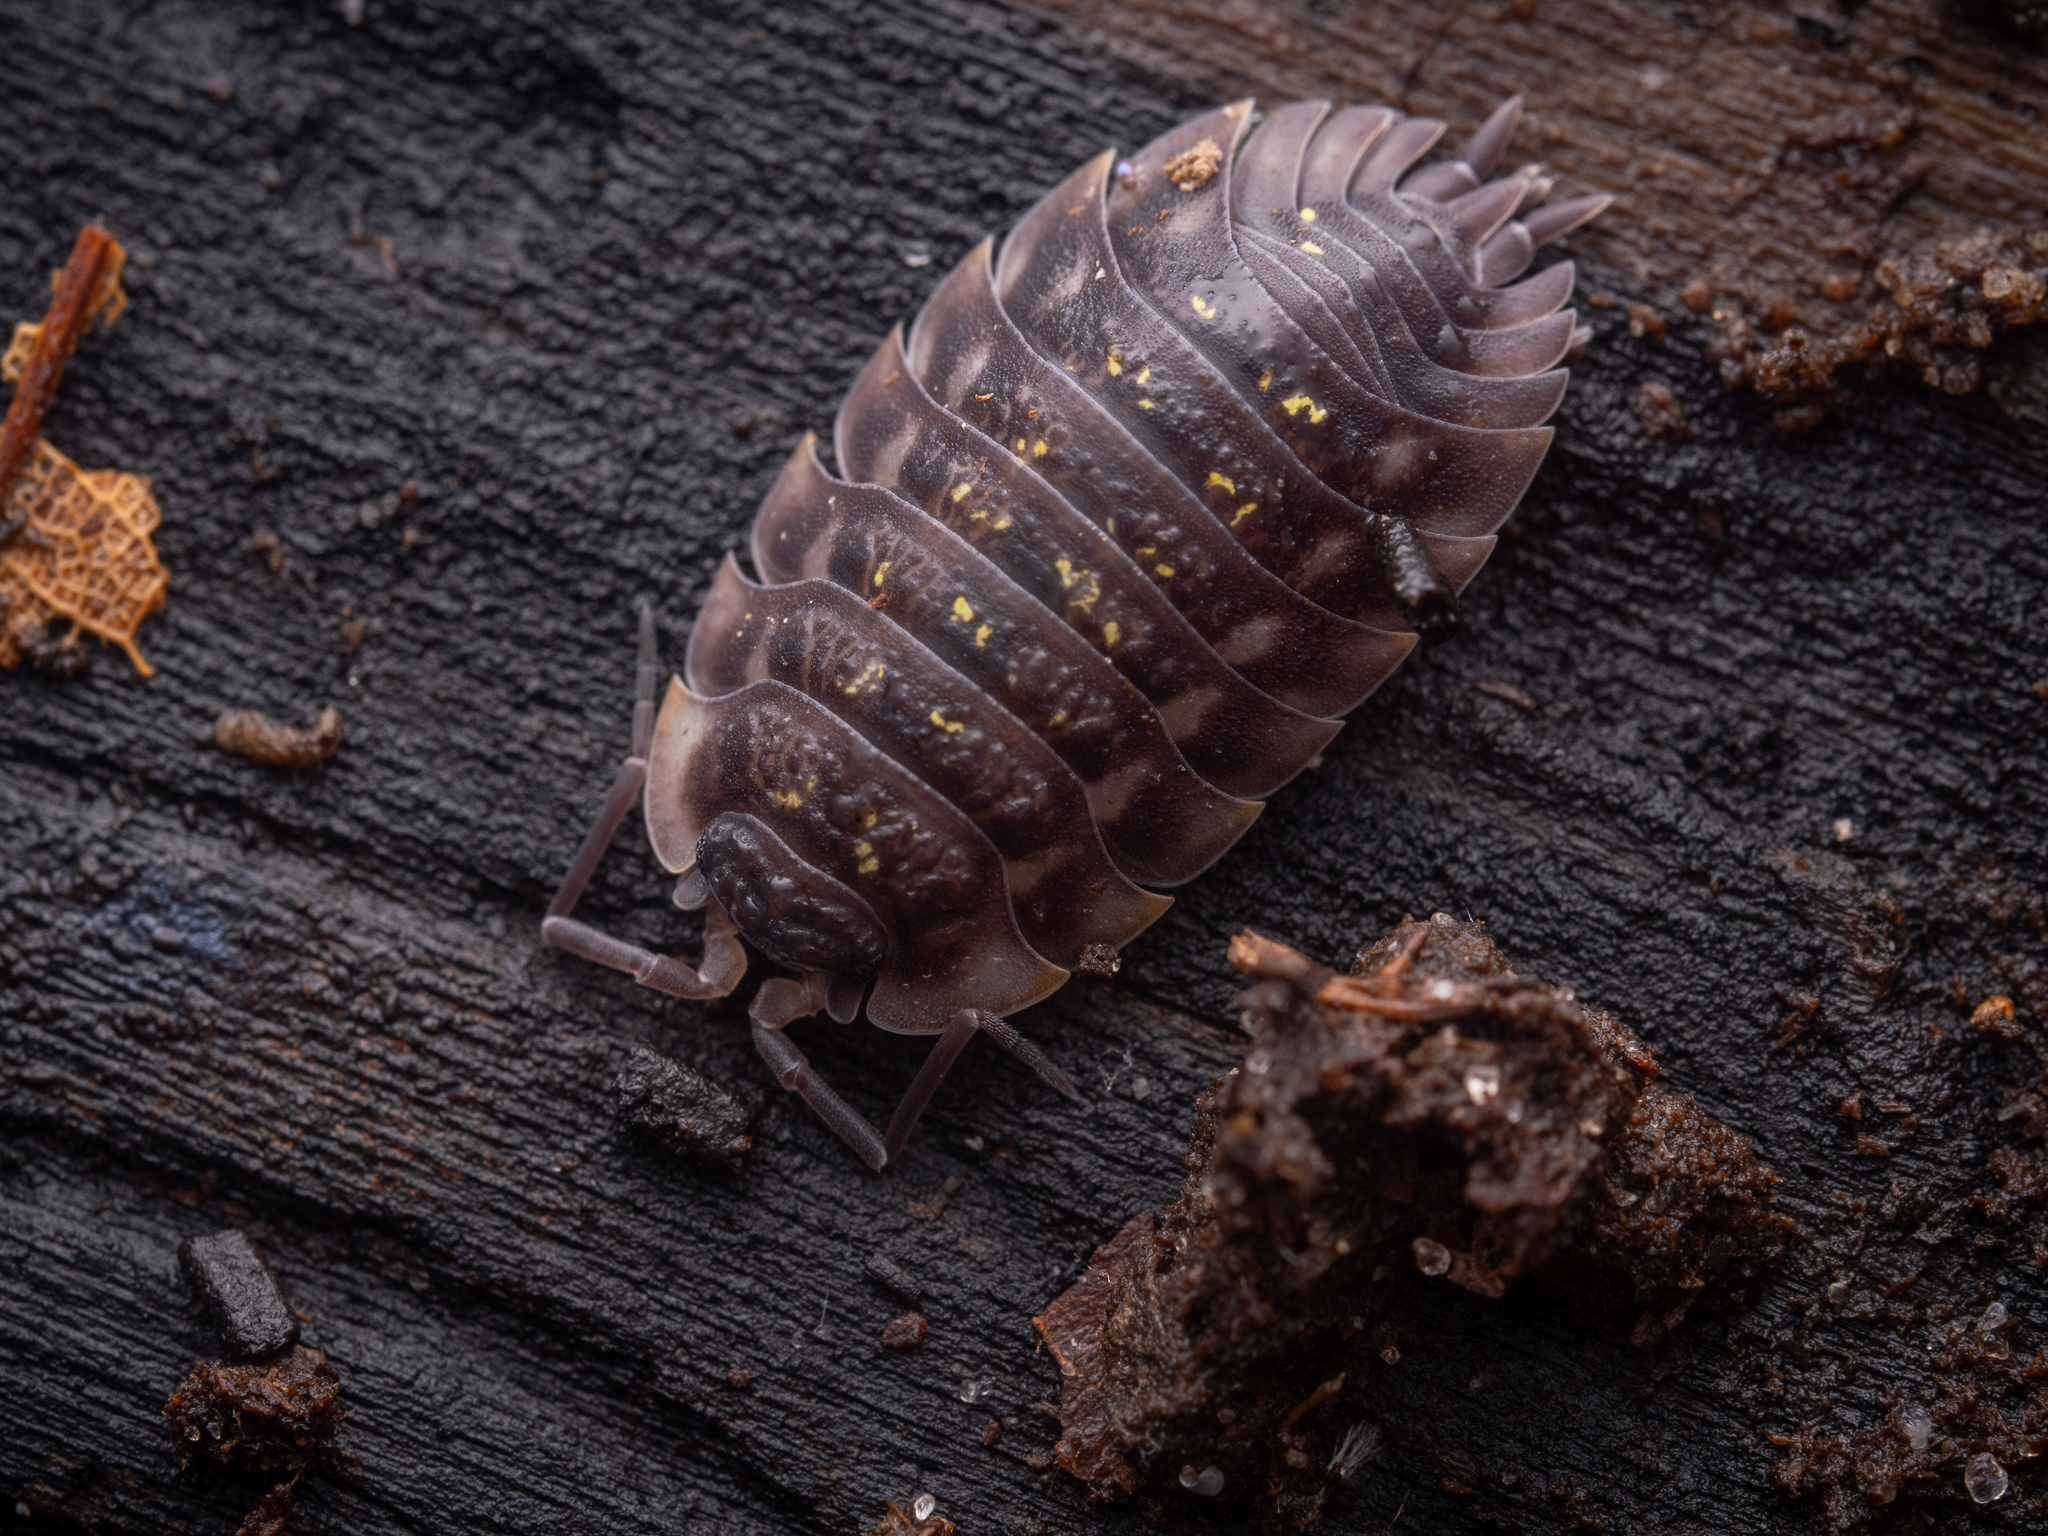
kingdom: Animalia
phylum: Arthropoda
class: Malacostraca
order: Isopoda
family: Oniscidae
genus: Oniscus
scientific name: Oniscus asellus
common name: Common shiny woodlouse
